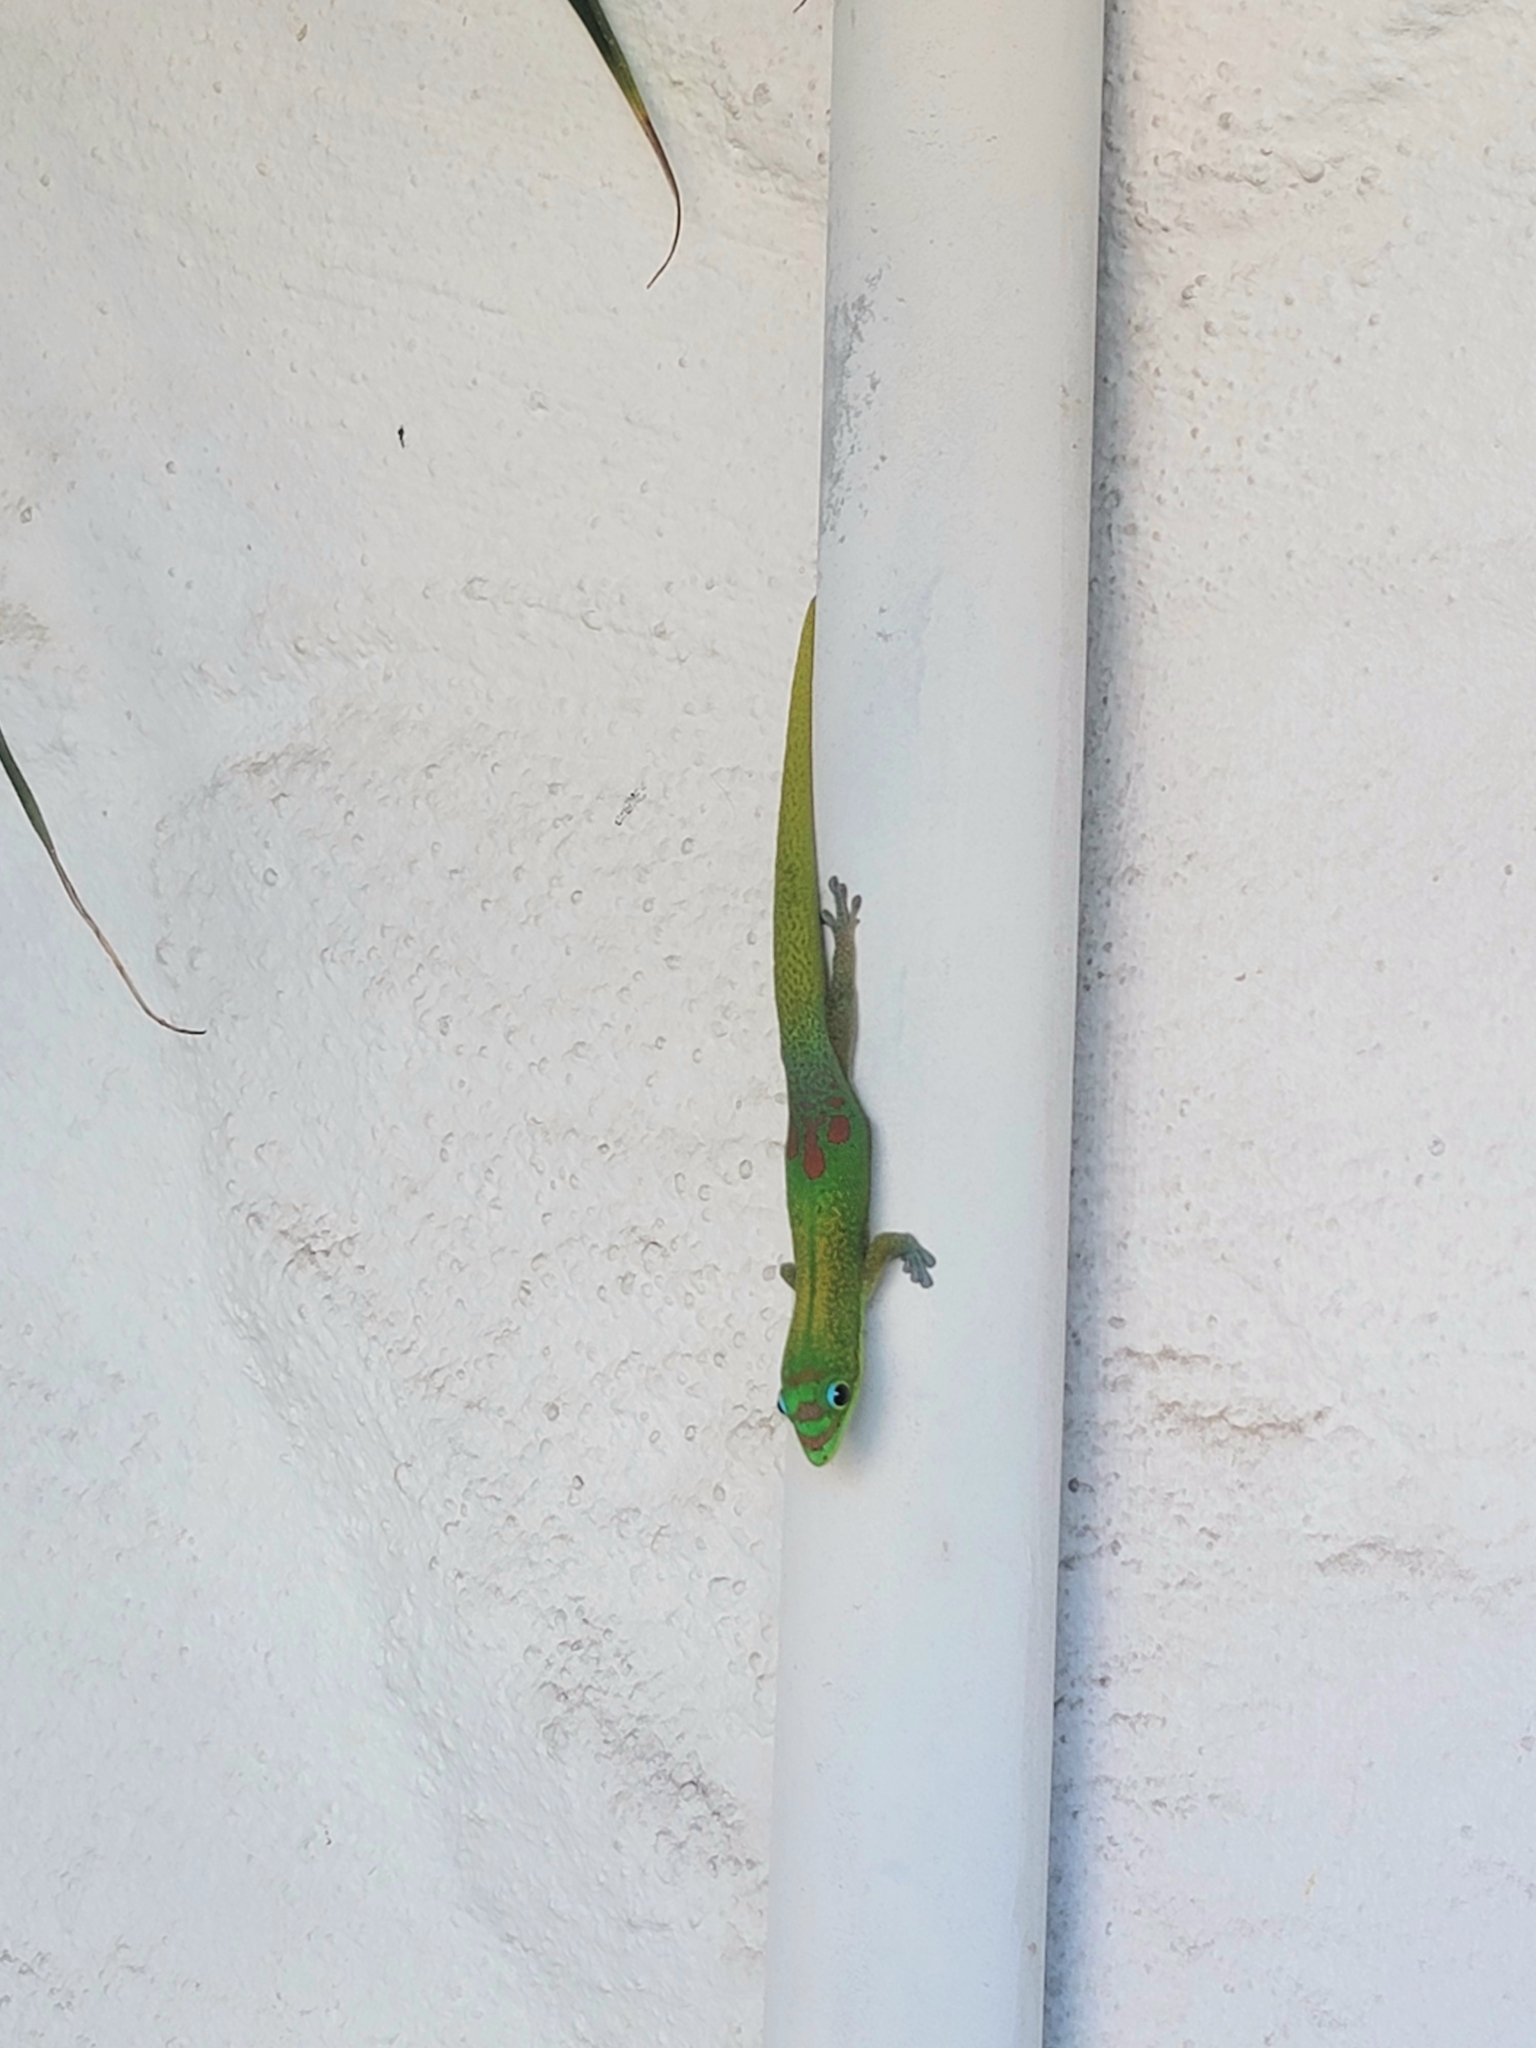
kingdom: Animalia
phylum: Chordata
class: Squamata
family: Gekkonidae
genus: Phelsuma
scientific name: Phelsuma laticauda
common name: Gold dust day gecko
